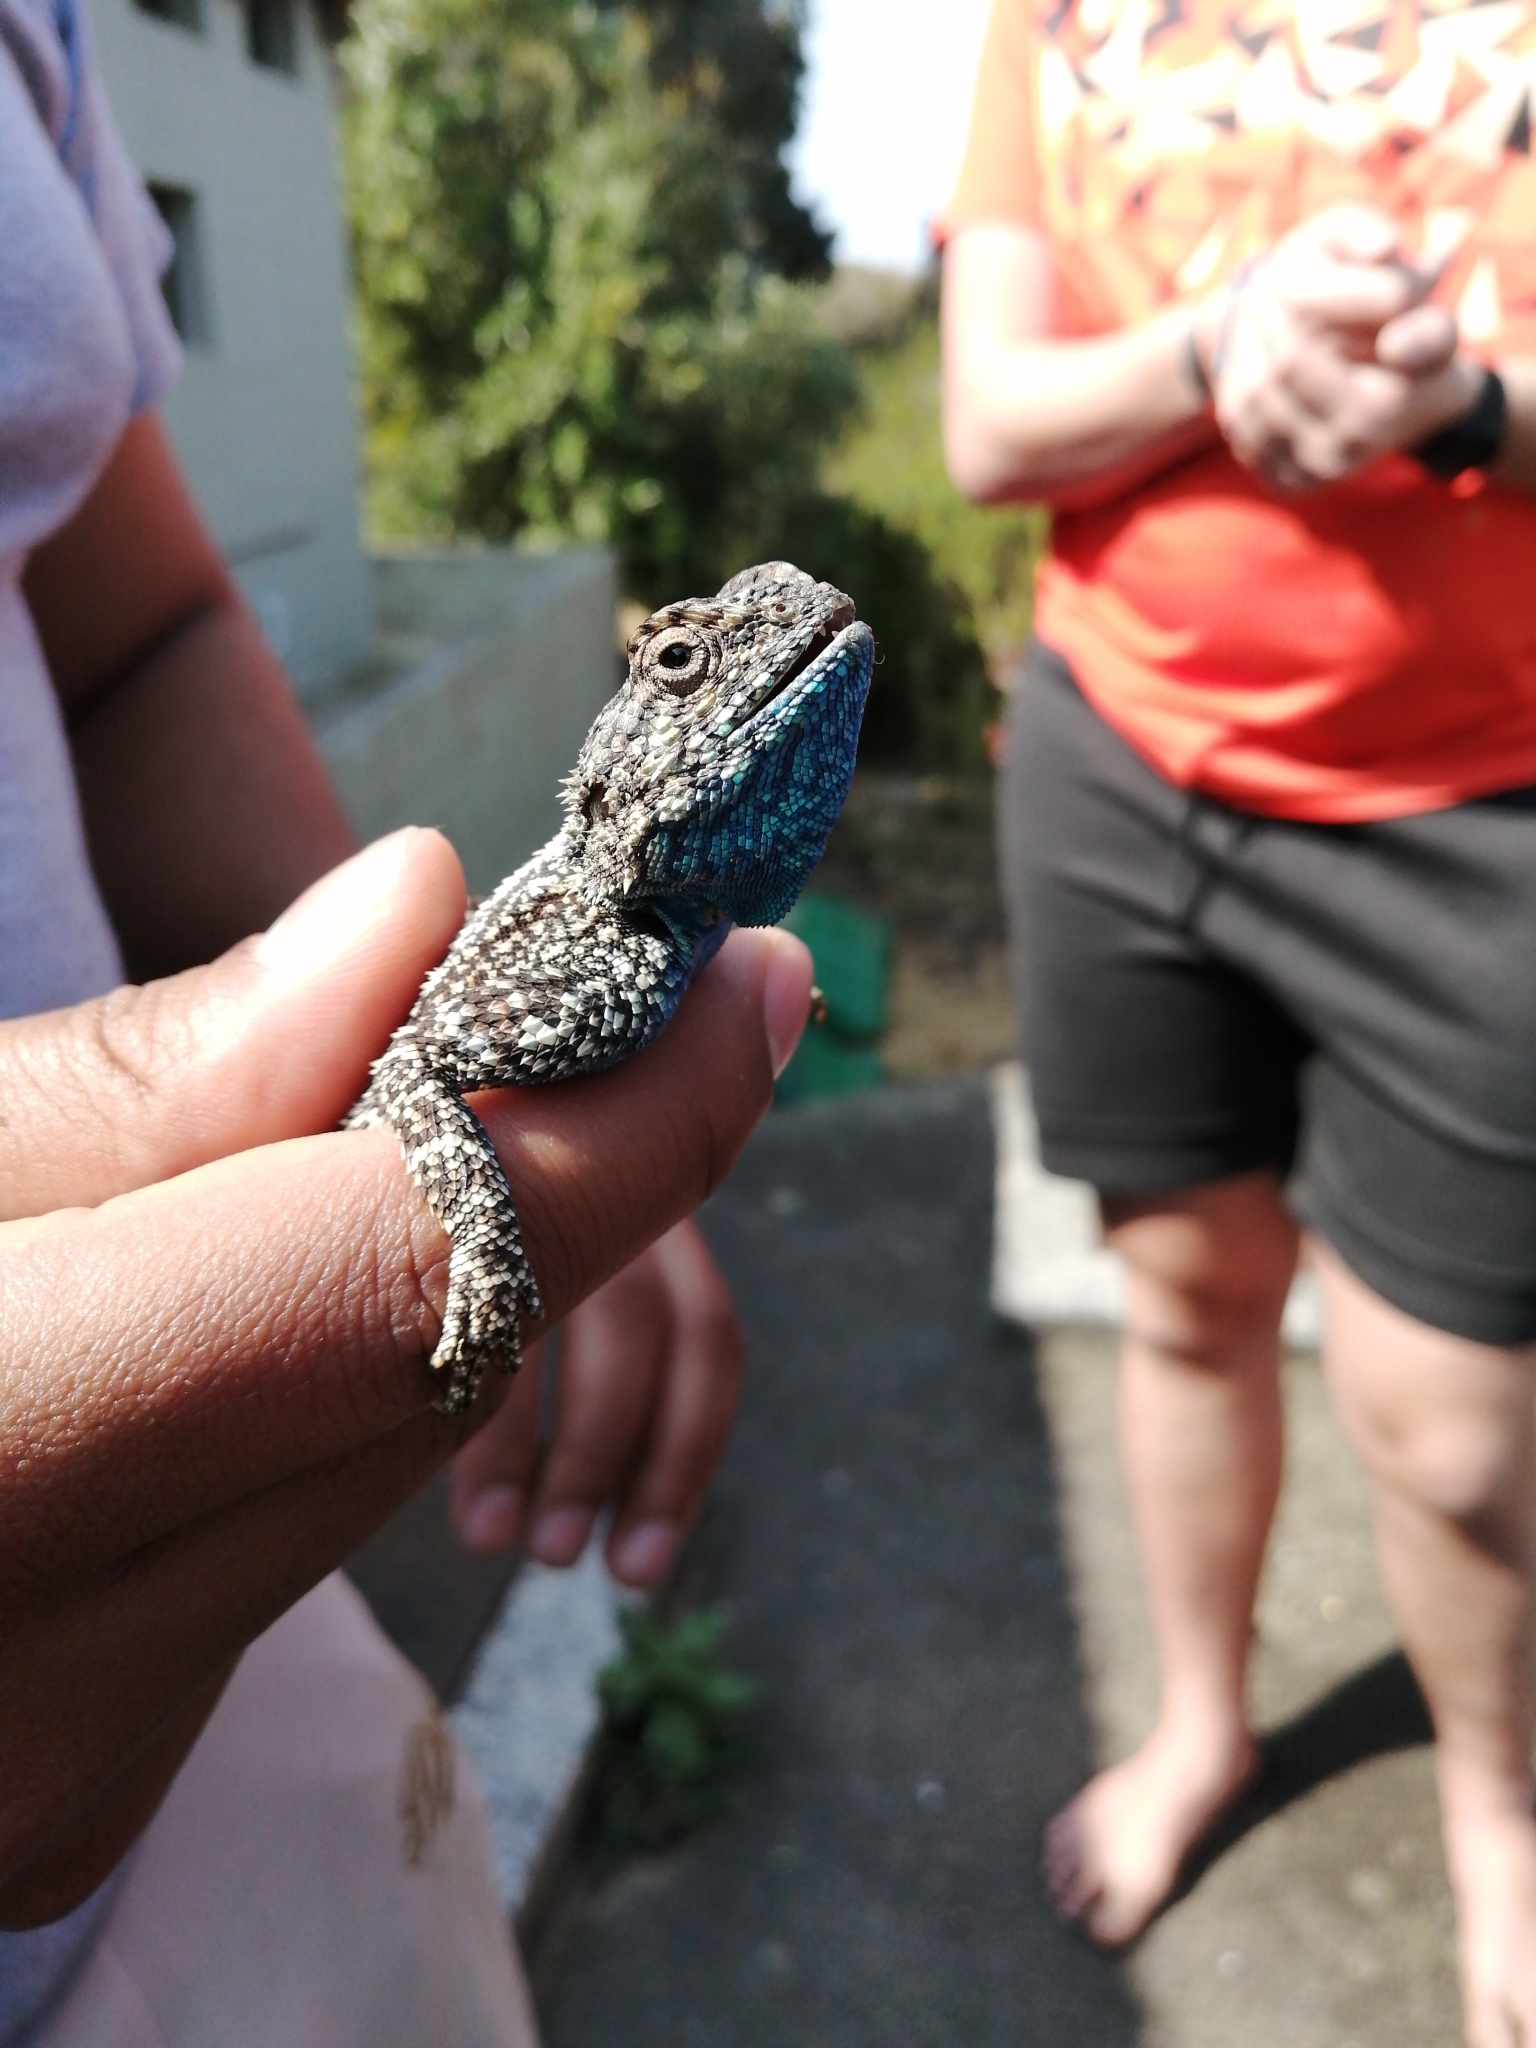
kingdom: Animalia
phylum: Chordata
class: Squamata
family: Agamidae
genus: Agama
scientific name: Agama atra
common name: Southern african rock agama
